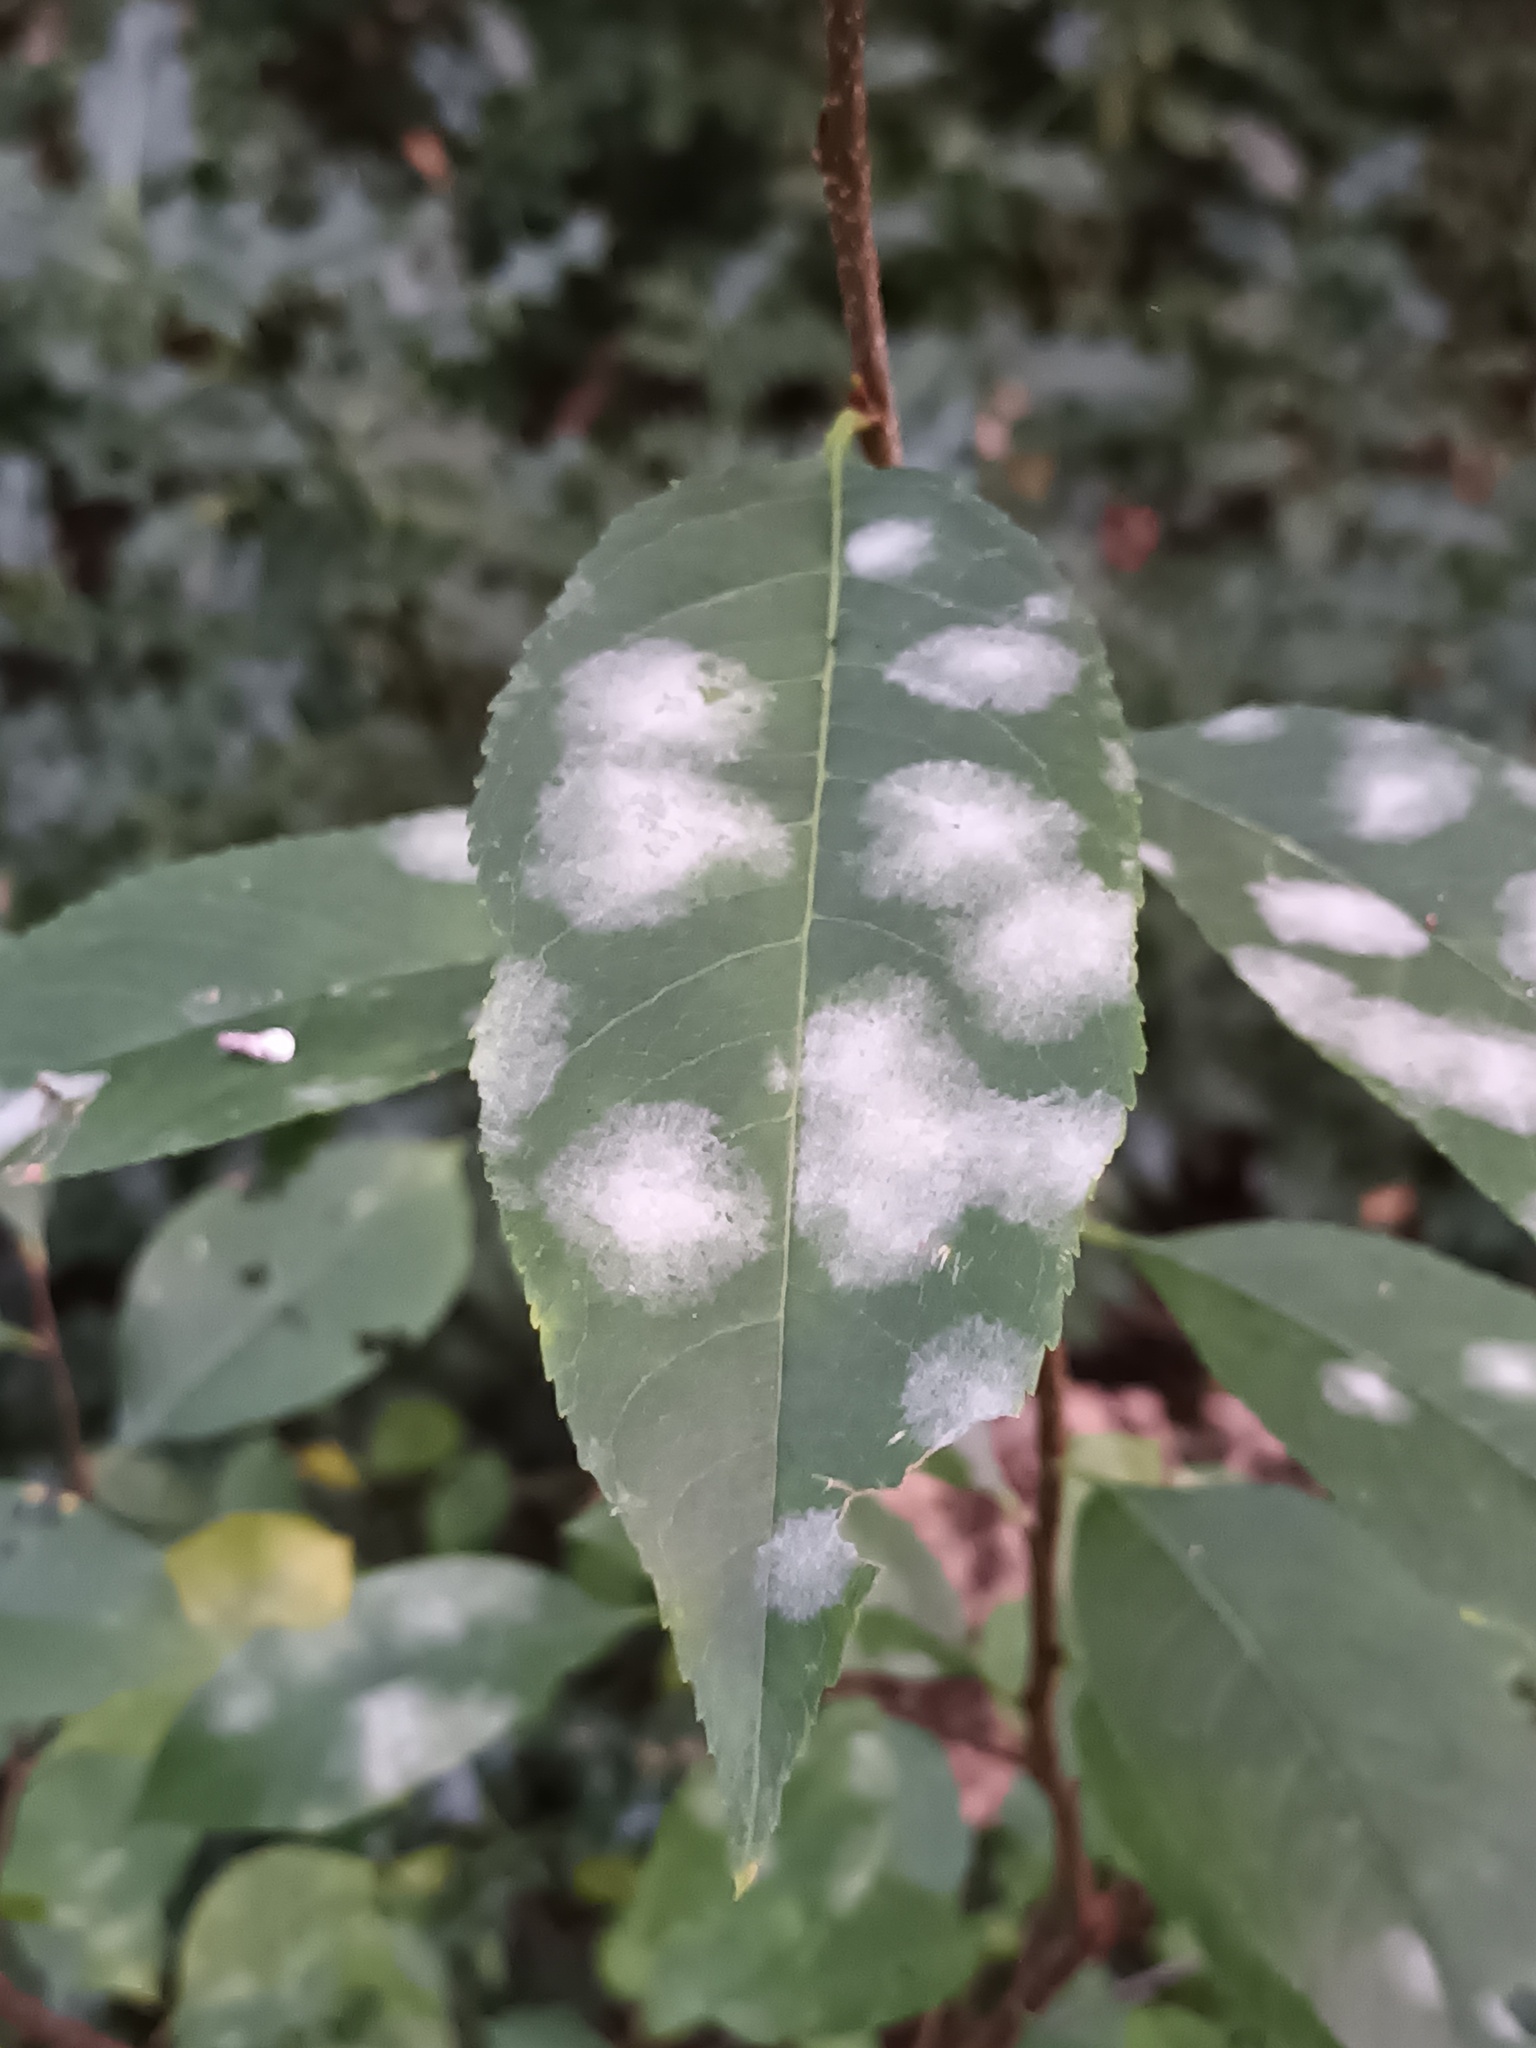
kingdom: Fungi
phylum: Ascomycota
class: Leotiomycetes
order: Helotiales
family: Erysiphaceae
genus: Podosphaera
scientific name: Podosphaera prunicola
